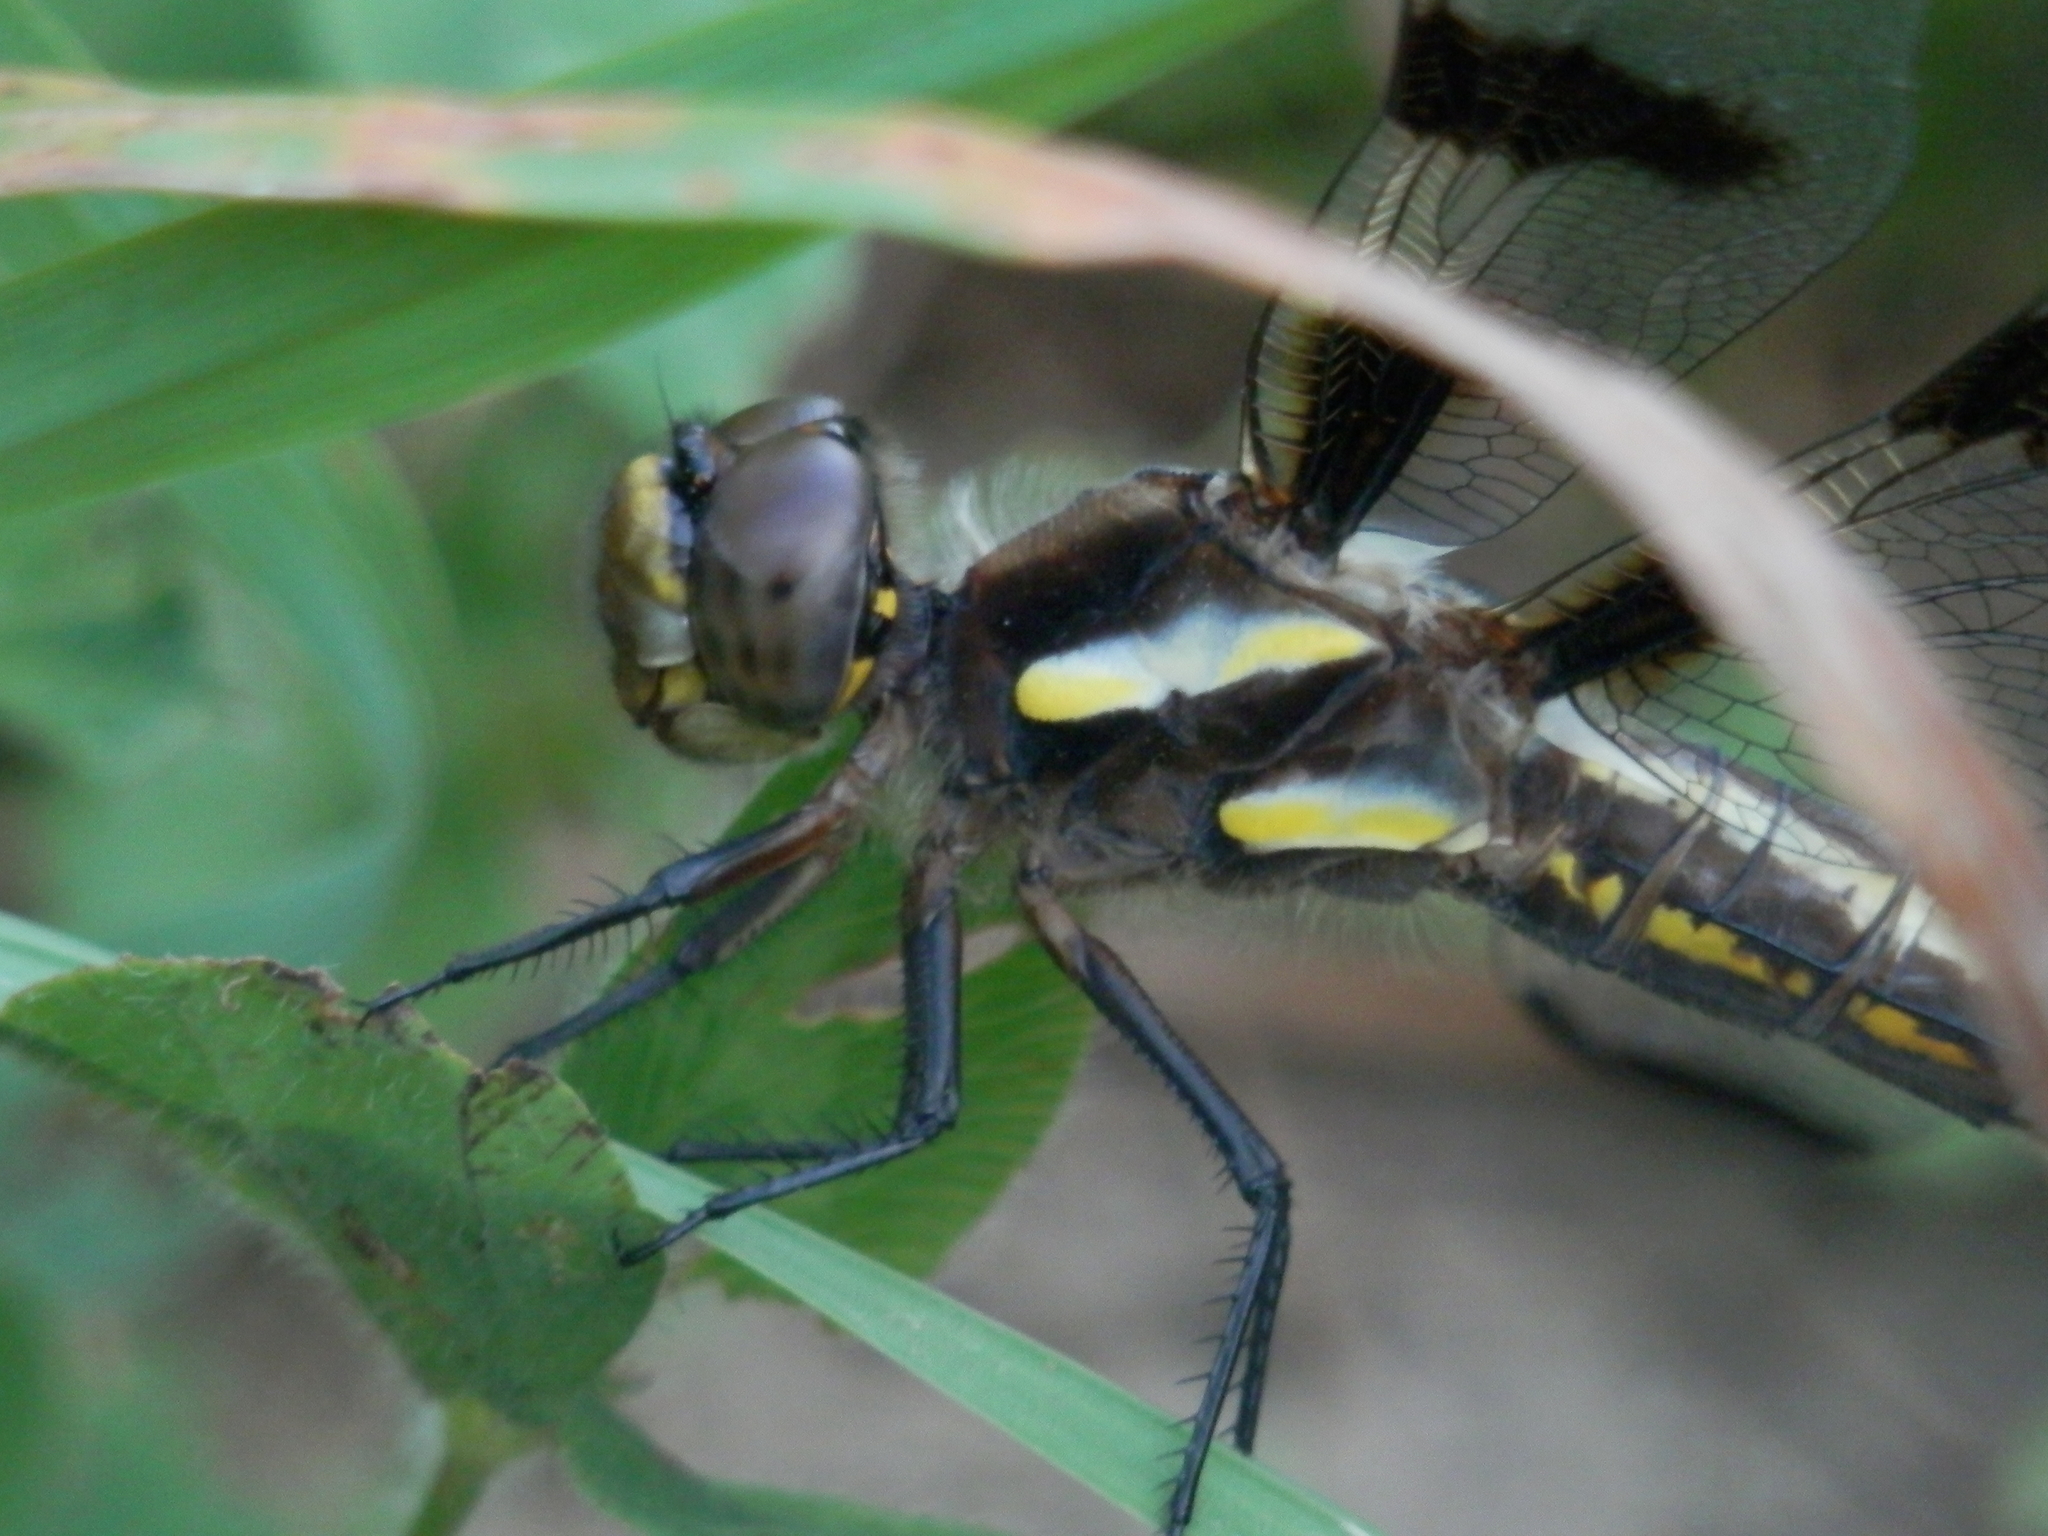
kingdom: Animalia
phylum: Arthropoda
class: Insecta
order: Odonata
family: Libellulidae
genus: Libellula
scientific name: Libellula pulchella
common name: Twelve-spotted skimmer
